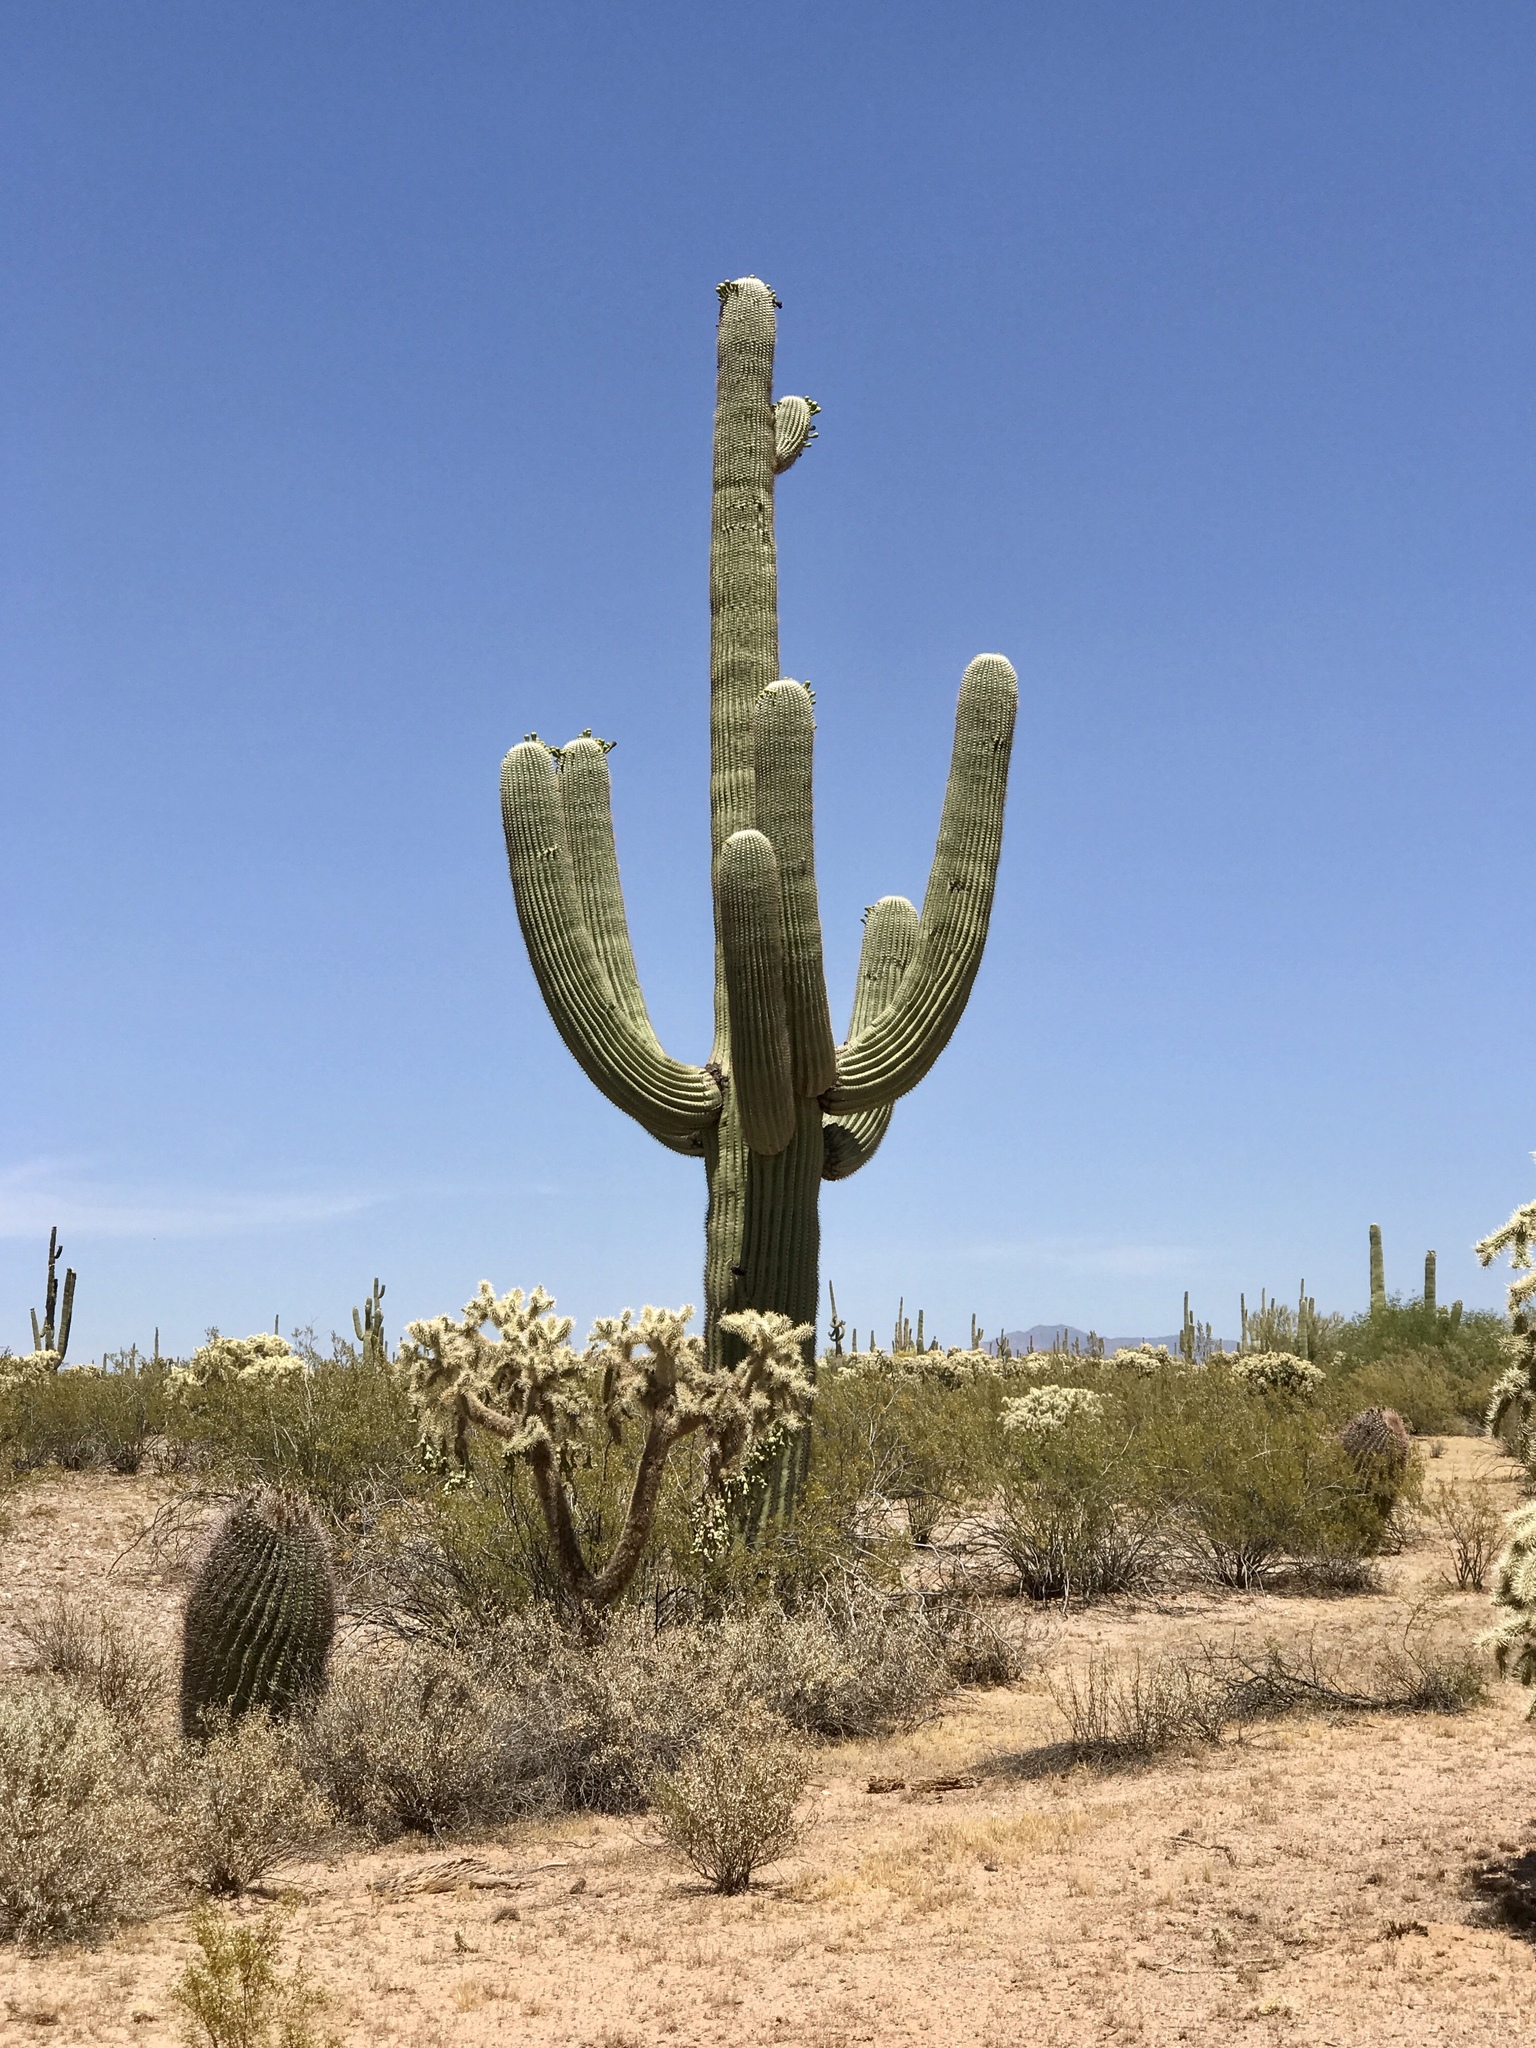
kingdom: Plantae
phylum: Tracheophyta
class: Magnoliopsida
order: Caryophyllales
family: Cactaceae
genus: Carnegiea
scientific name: Carnegiea gigantea
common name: Saguaro
